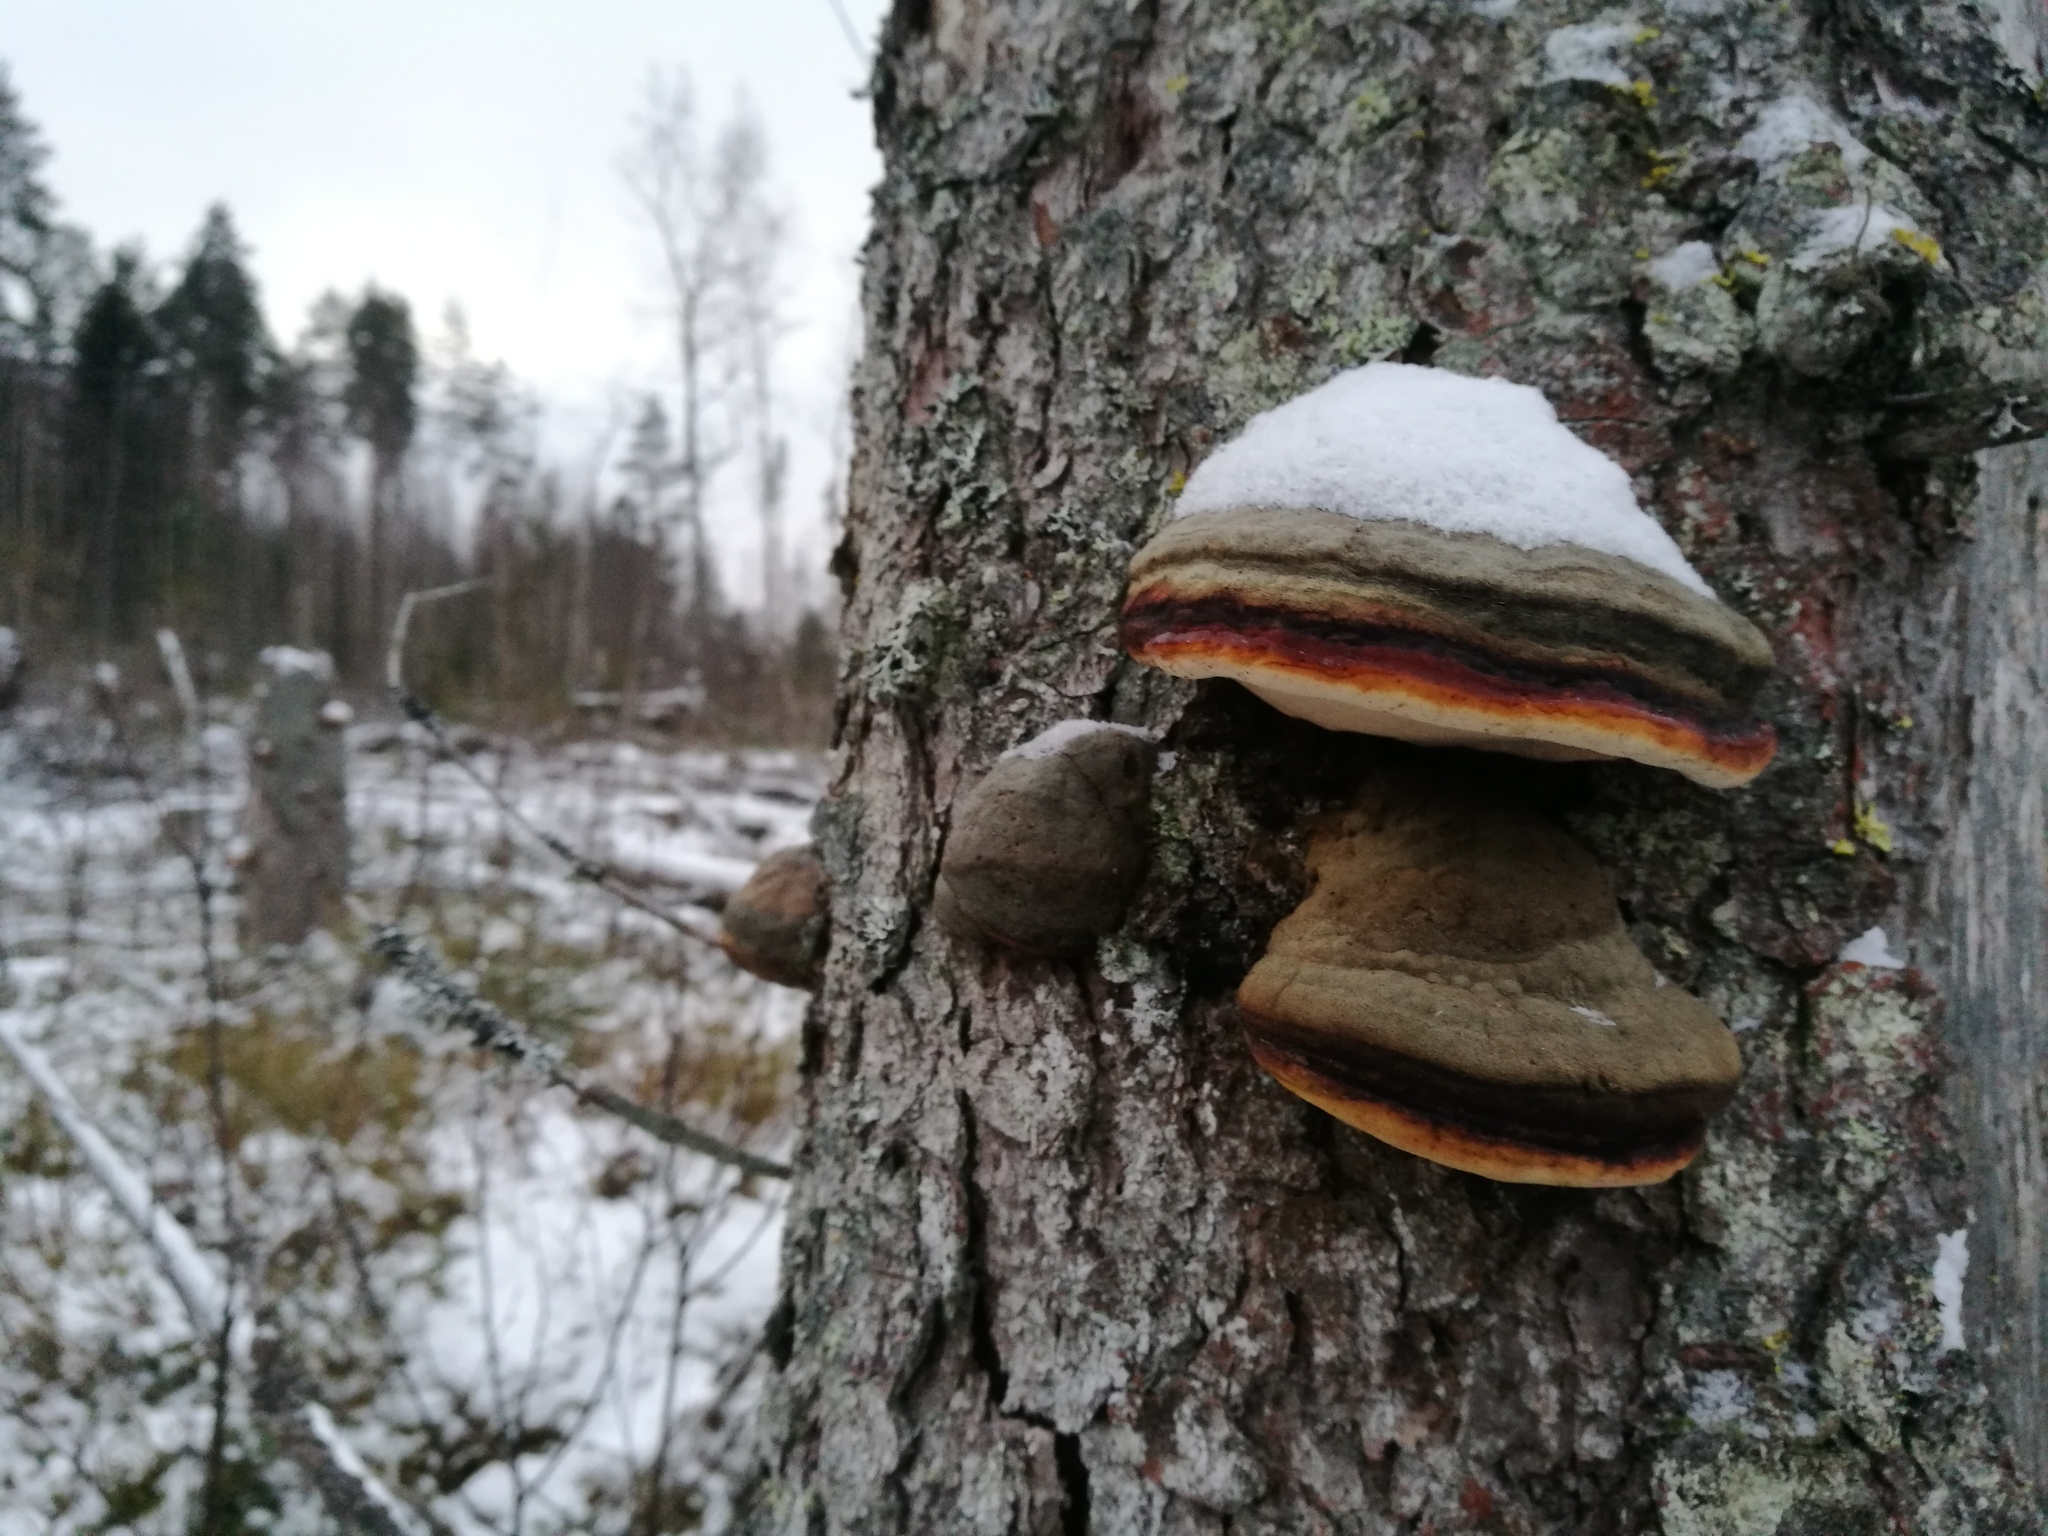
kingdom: Fungi
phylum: Basidiomycota
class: Agaricomycetes
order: Polyporales
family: Fomitopsidaceae
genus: Fomitopsis
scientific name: Fomitopsis pinicola
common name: Red-belted bracket
